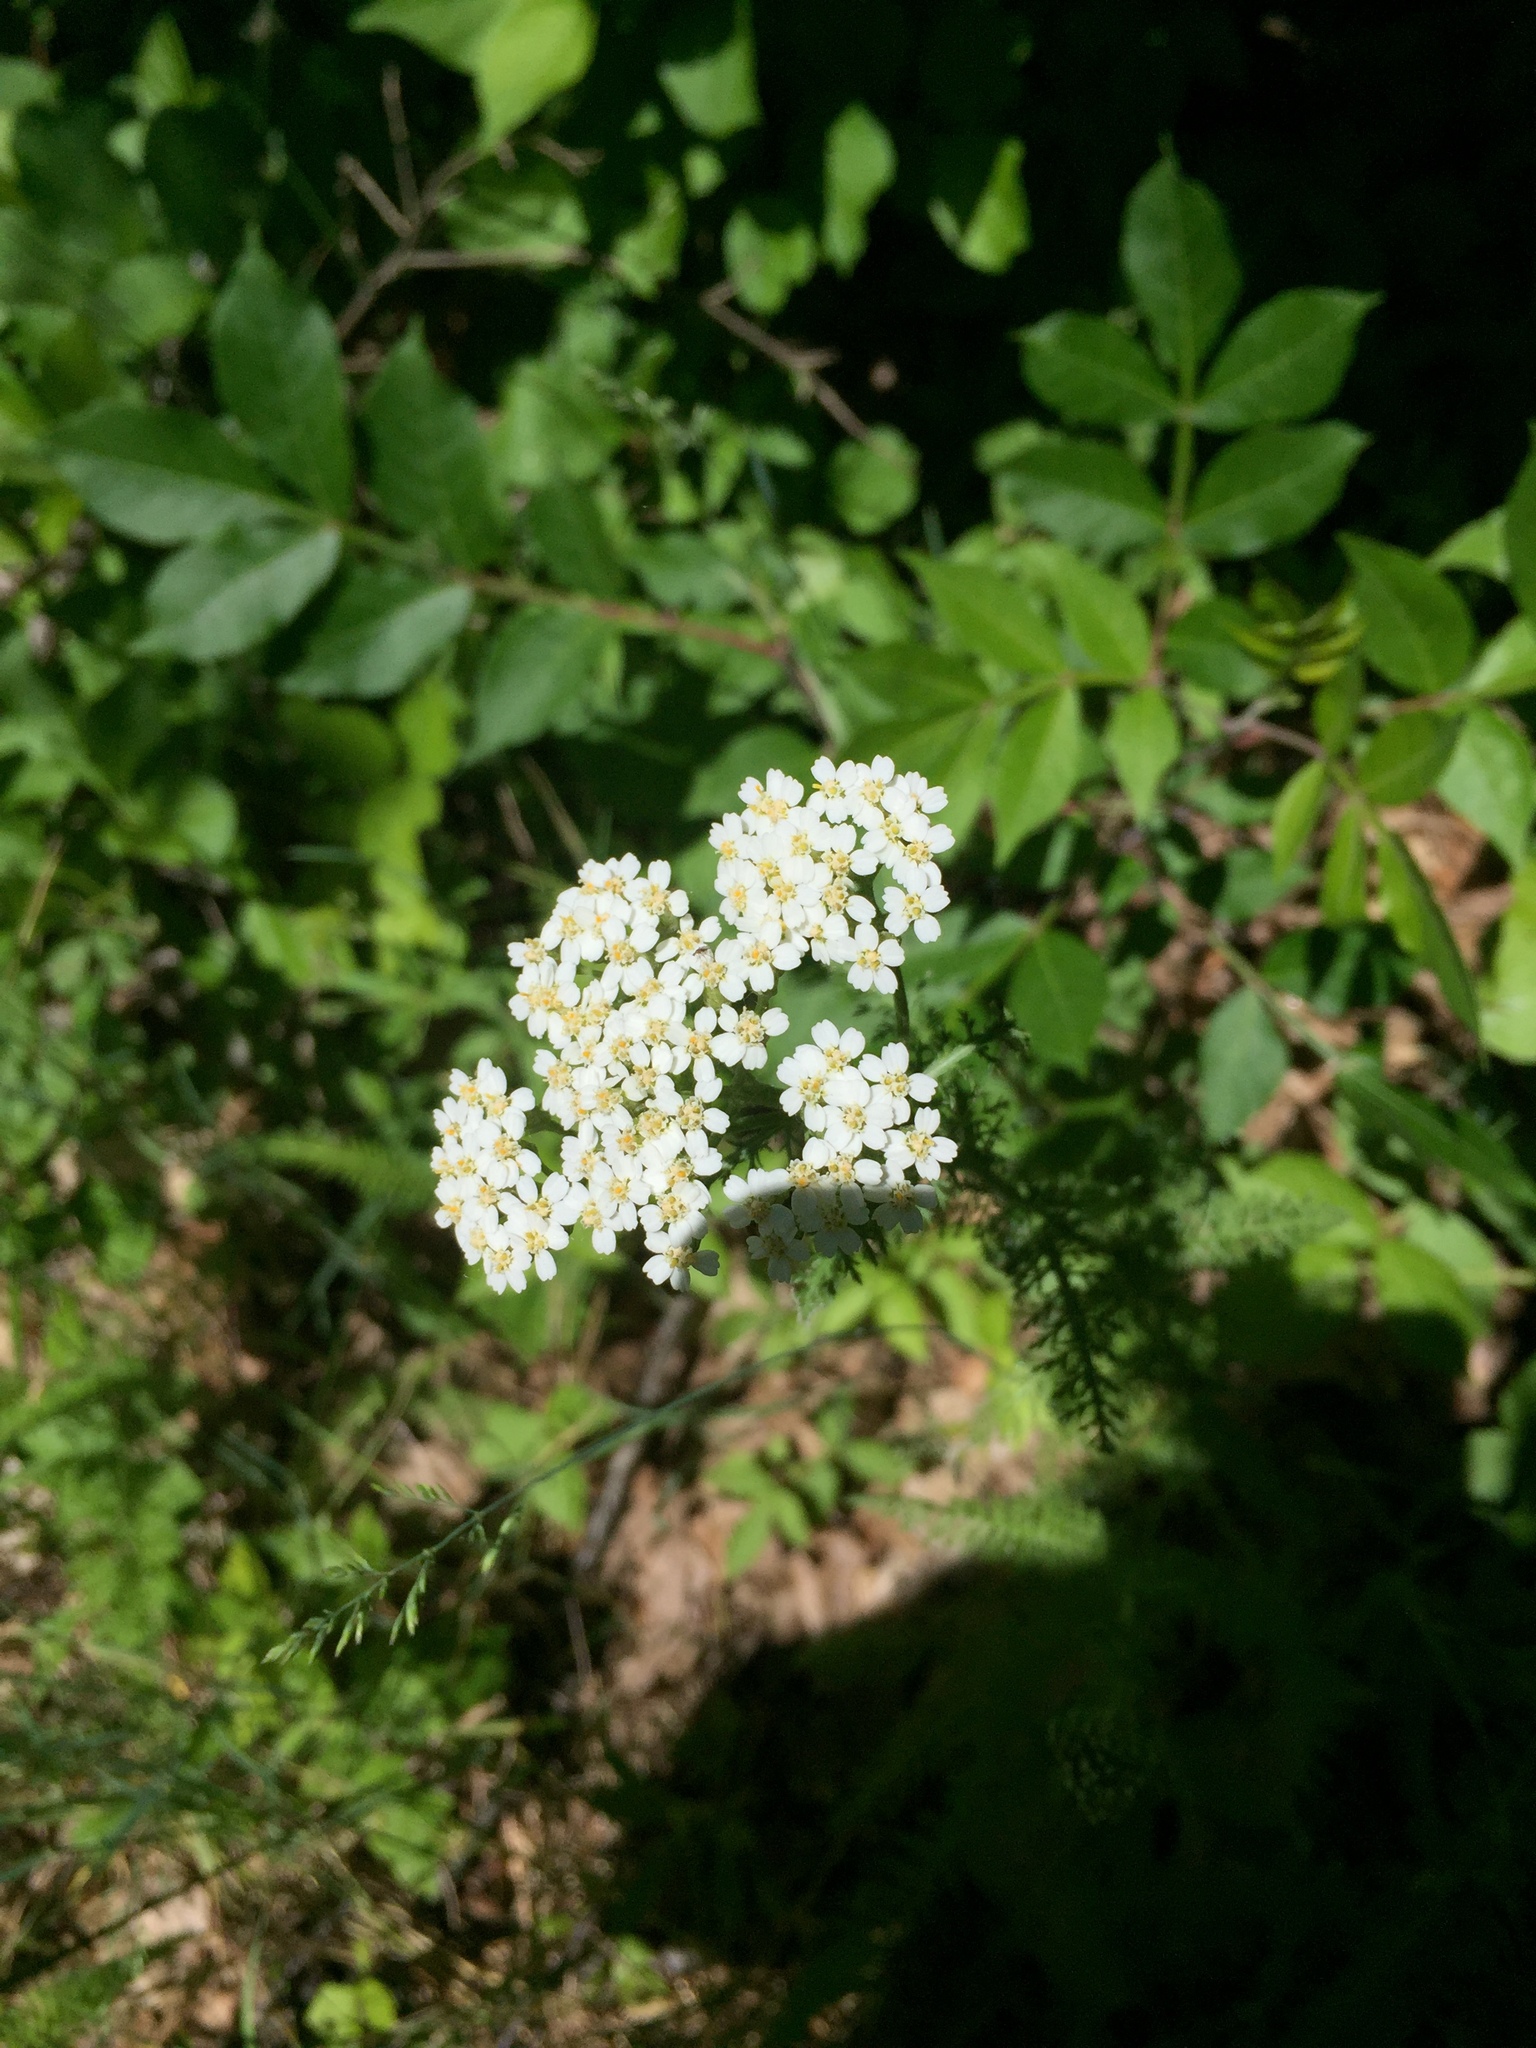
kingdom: Plantae
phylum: Tracheophyta
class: Magnoliopsida
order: Asterales
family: Asteraceae
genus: Achillea
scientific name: Achillea millefolium
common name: Yarrow
